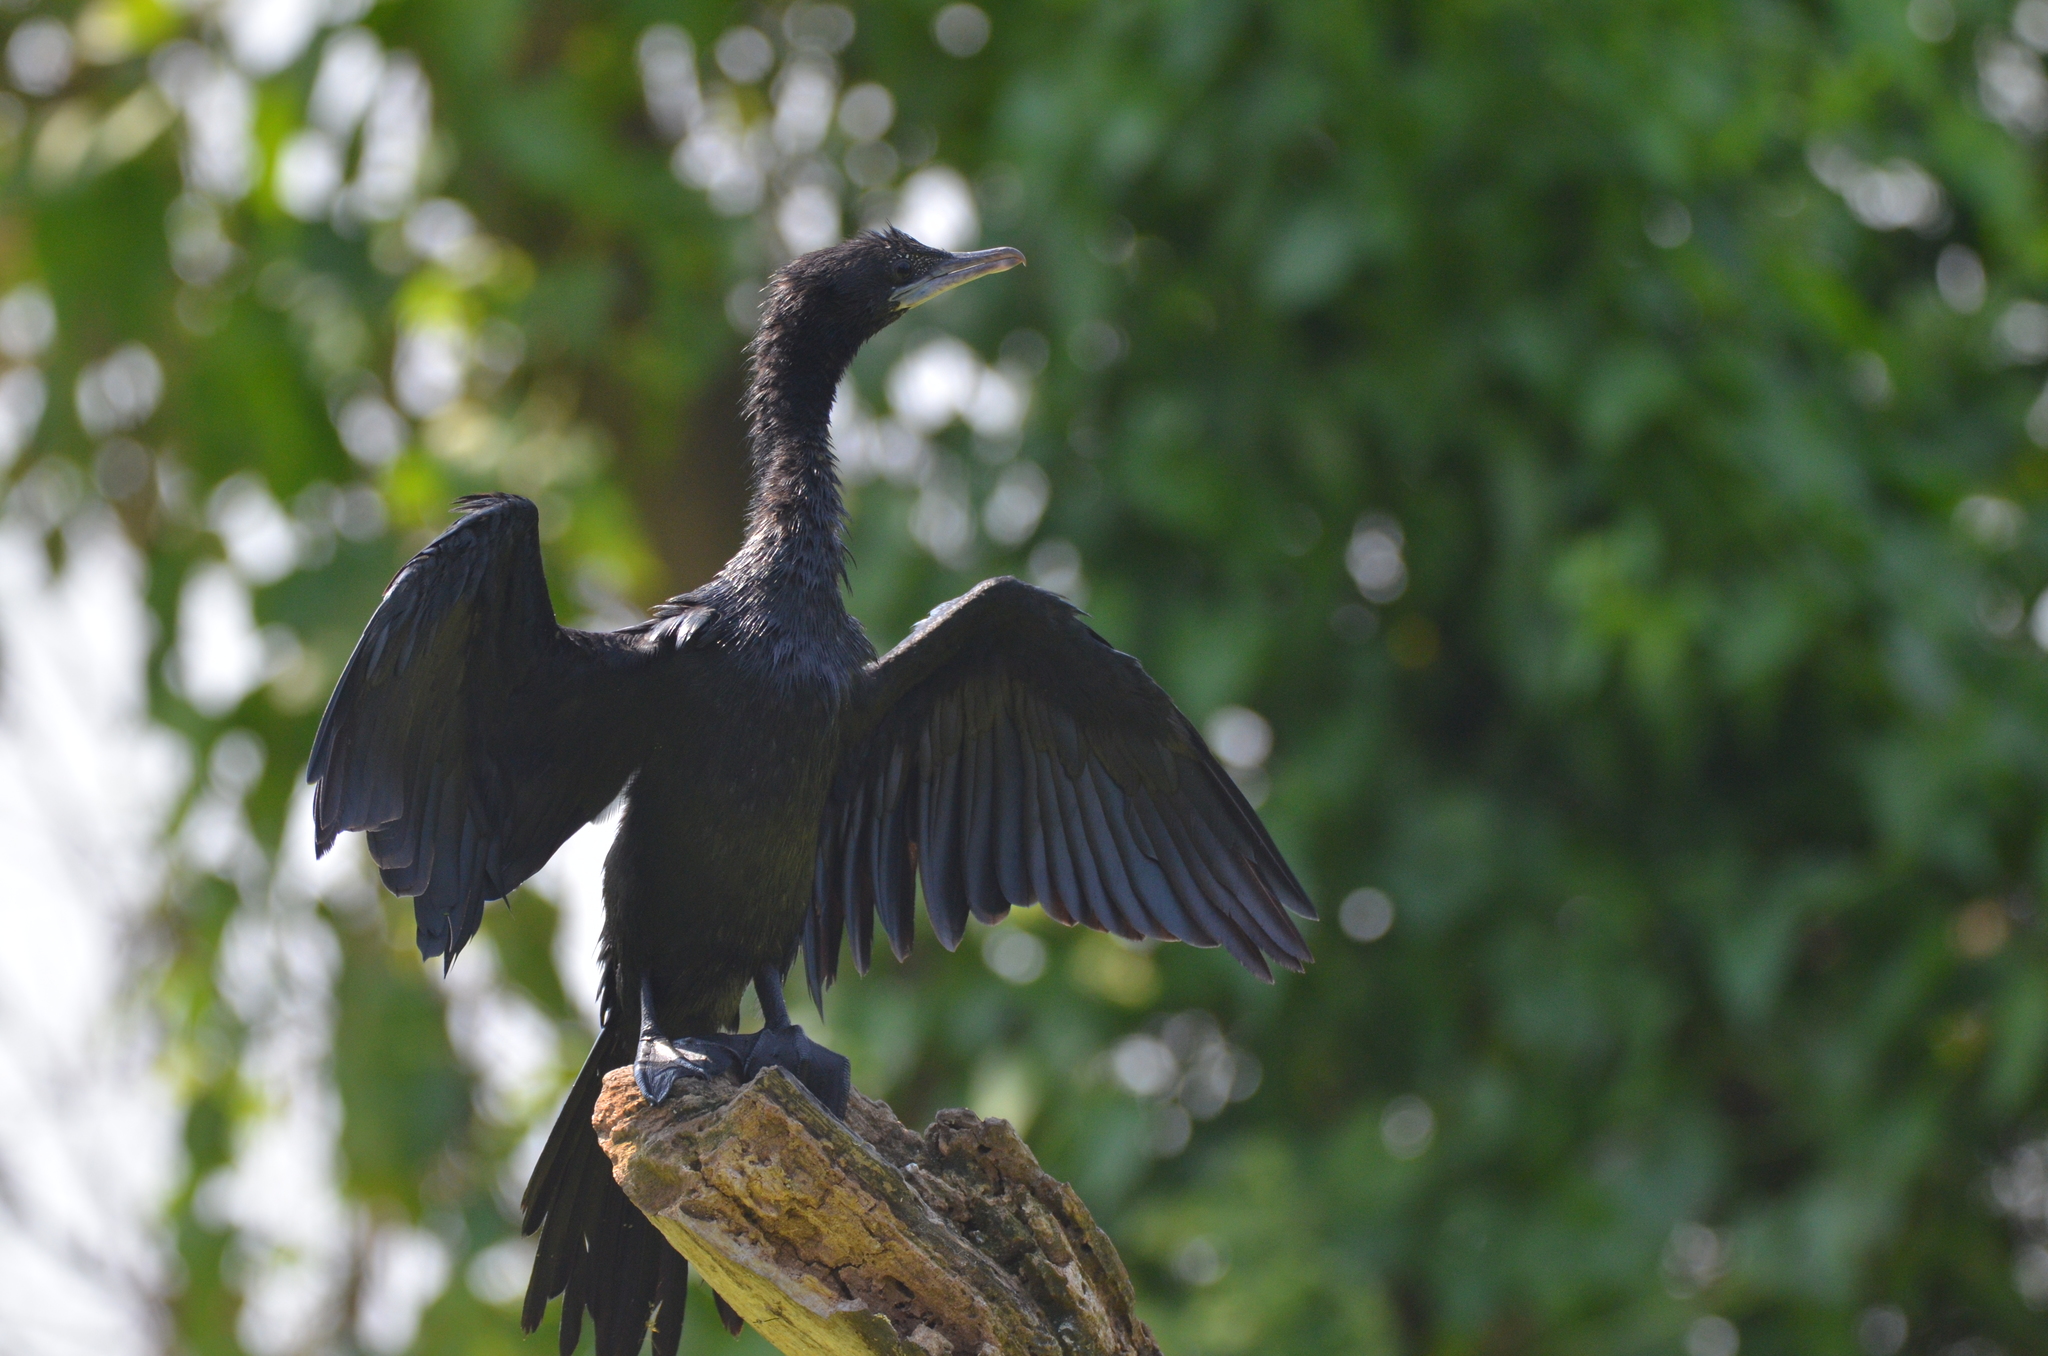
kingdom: Animalia
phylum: Chordata
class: Aves
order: Suliformes
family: Phalacrocoracidae
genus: Microcarbo
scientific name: Microcarbo niger
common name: Little cormorant
